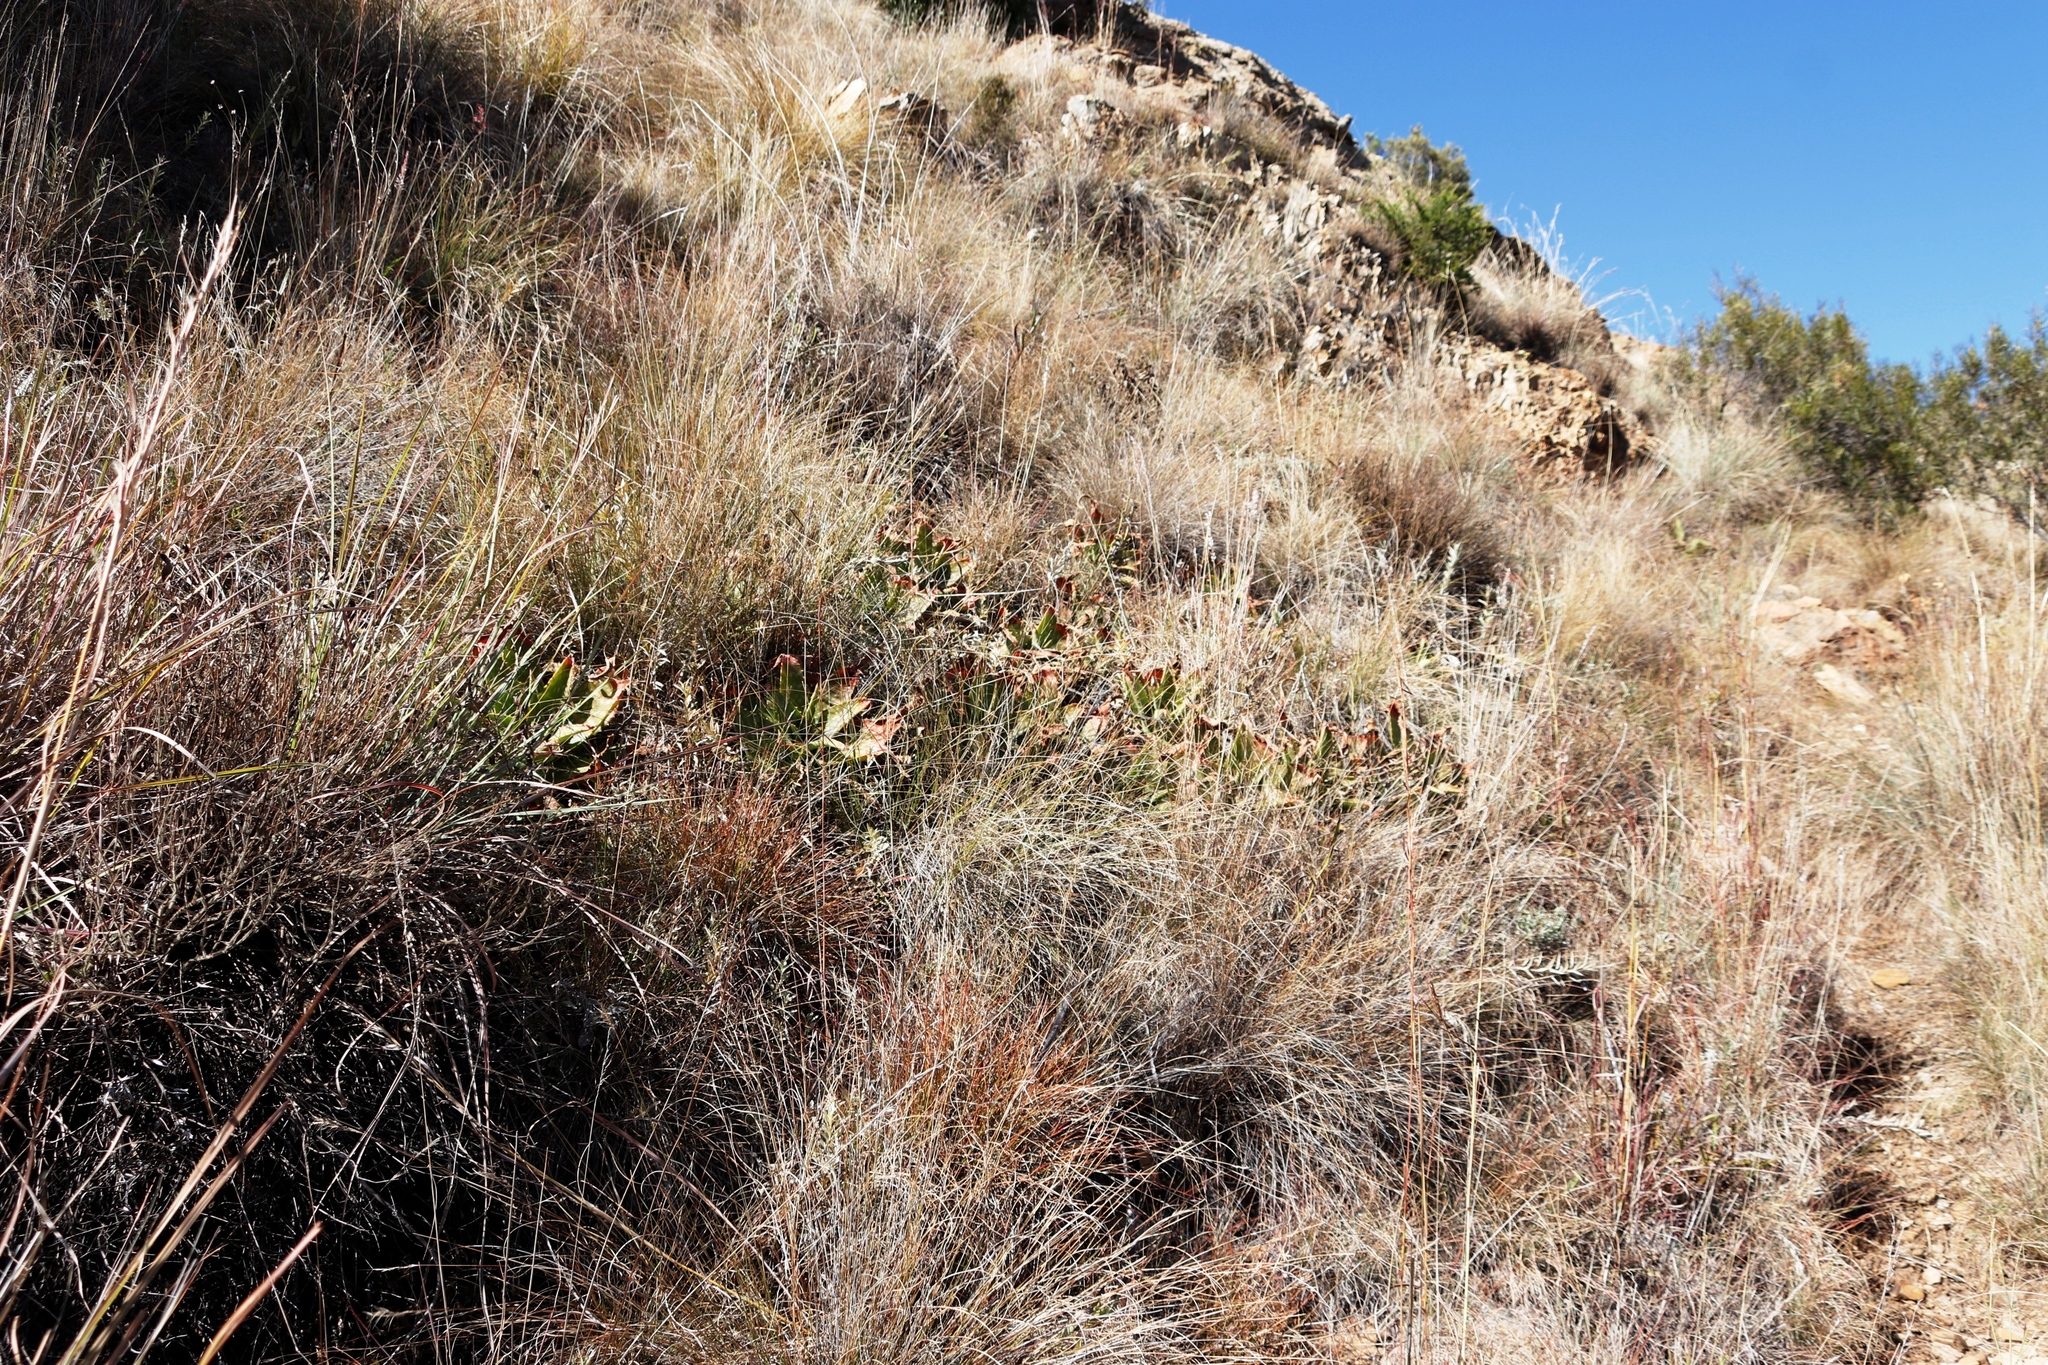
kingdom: Plantae
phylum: Tracheophyta
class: Liliopsida
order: Asparagales
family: Asphodelaceae
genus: Aloe
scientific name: Aloe maculata
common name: Broadleaf aloe
